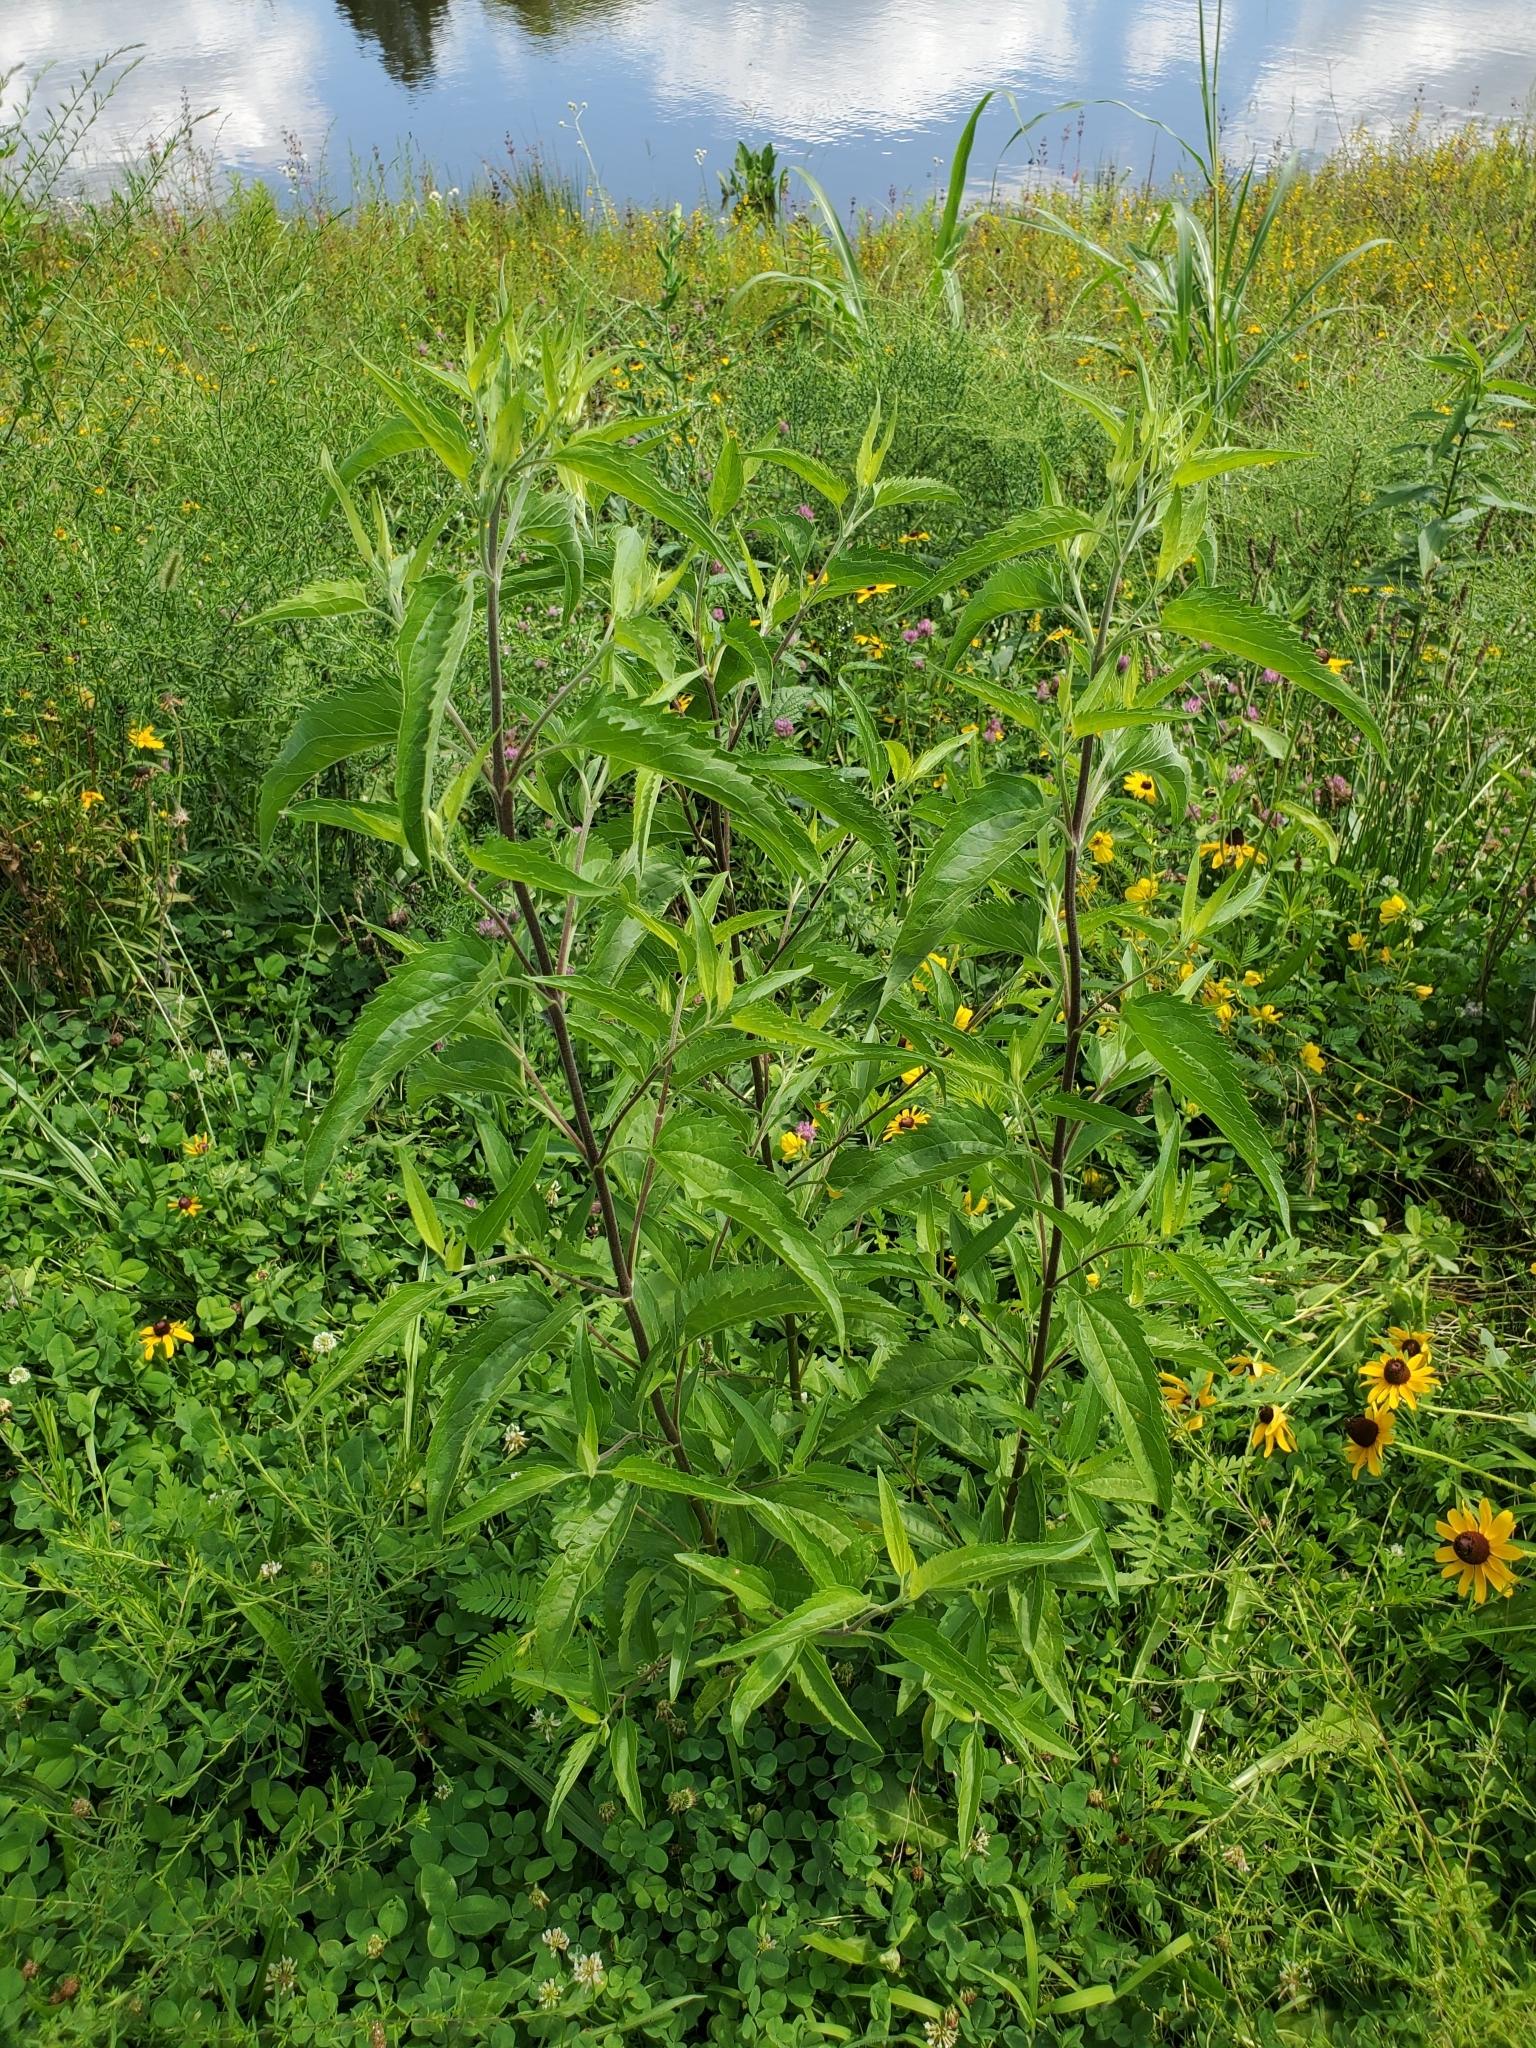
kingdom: Plantae
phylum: Tracheophyta
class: Magnoliopsida
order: Asterales
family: Asteraceae
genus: Eupatorium
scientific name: Eupatorium serotinum
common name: Late boneset
